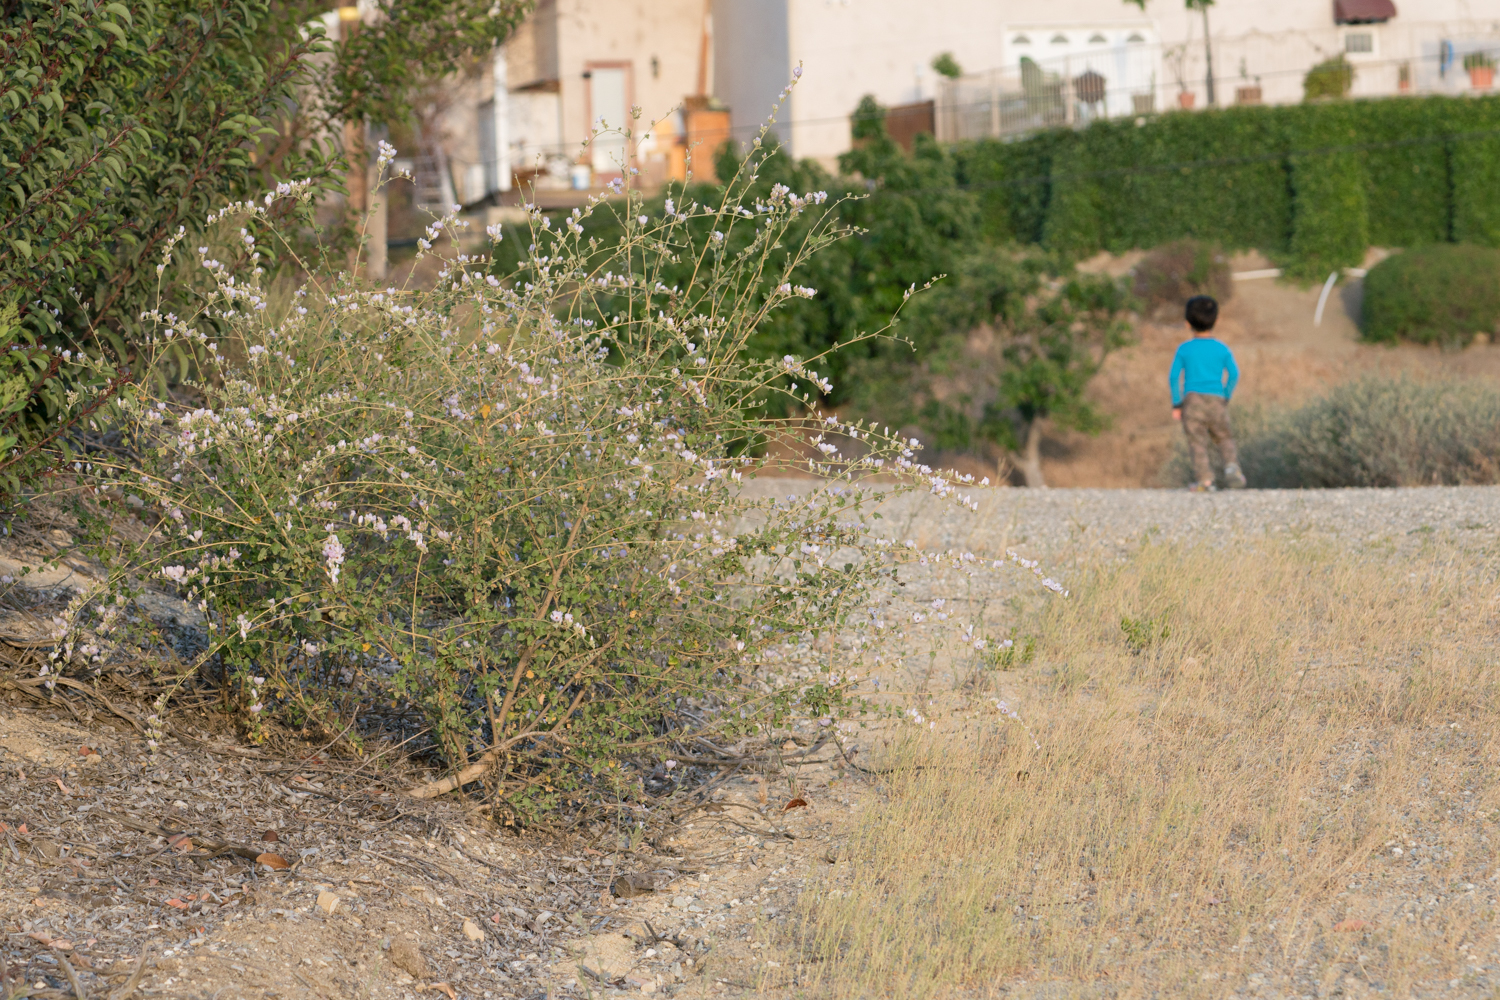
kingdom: Plantae
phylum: Tracheophyta
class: Magnoliopsida
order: Malvales
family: Malvaceae
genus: Malacothamnus
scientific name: Malacothamnus fasciculatus
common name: Sant cruz island bush-mallow
